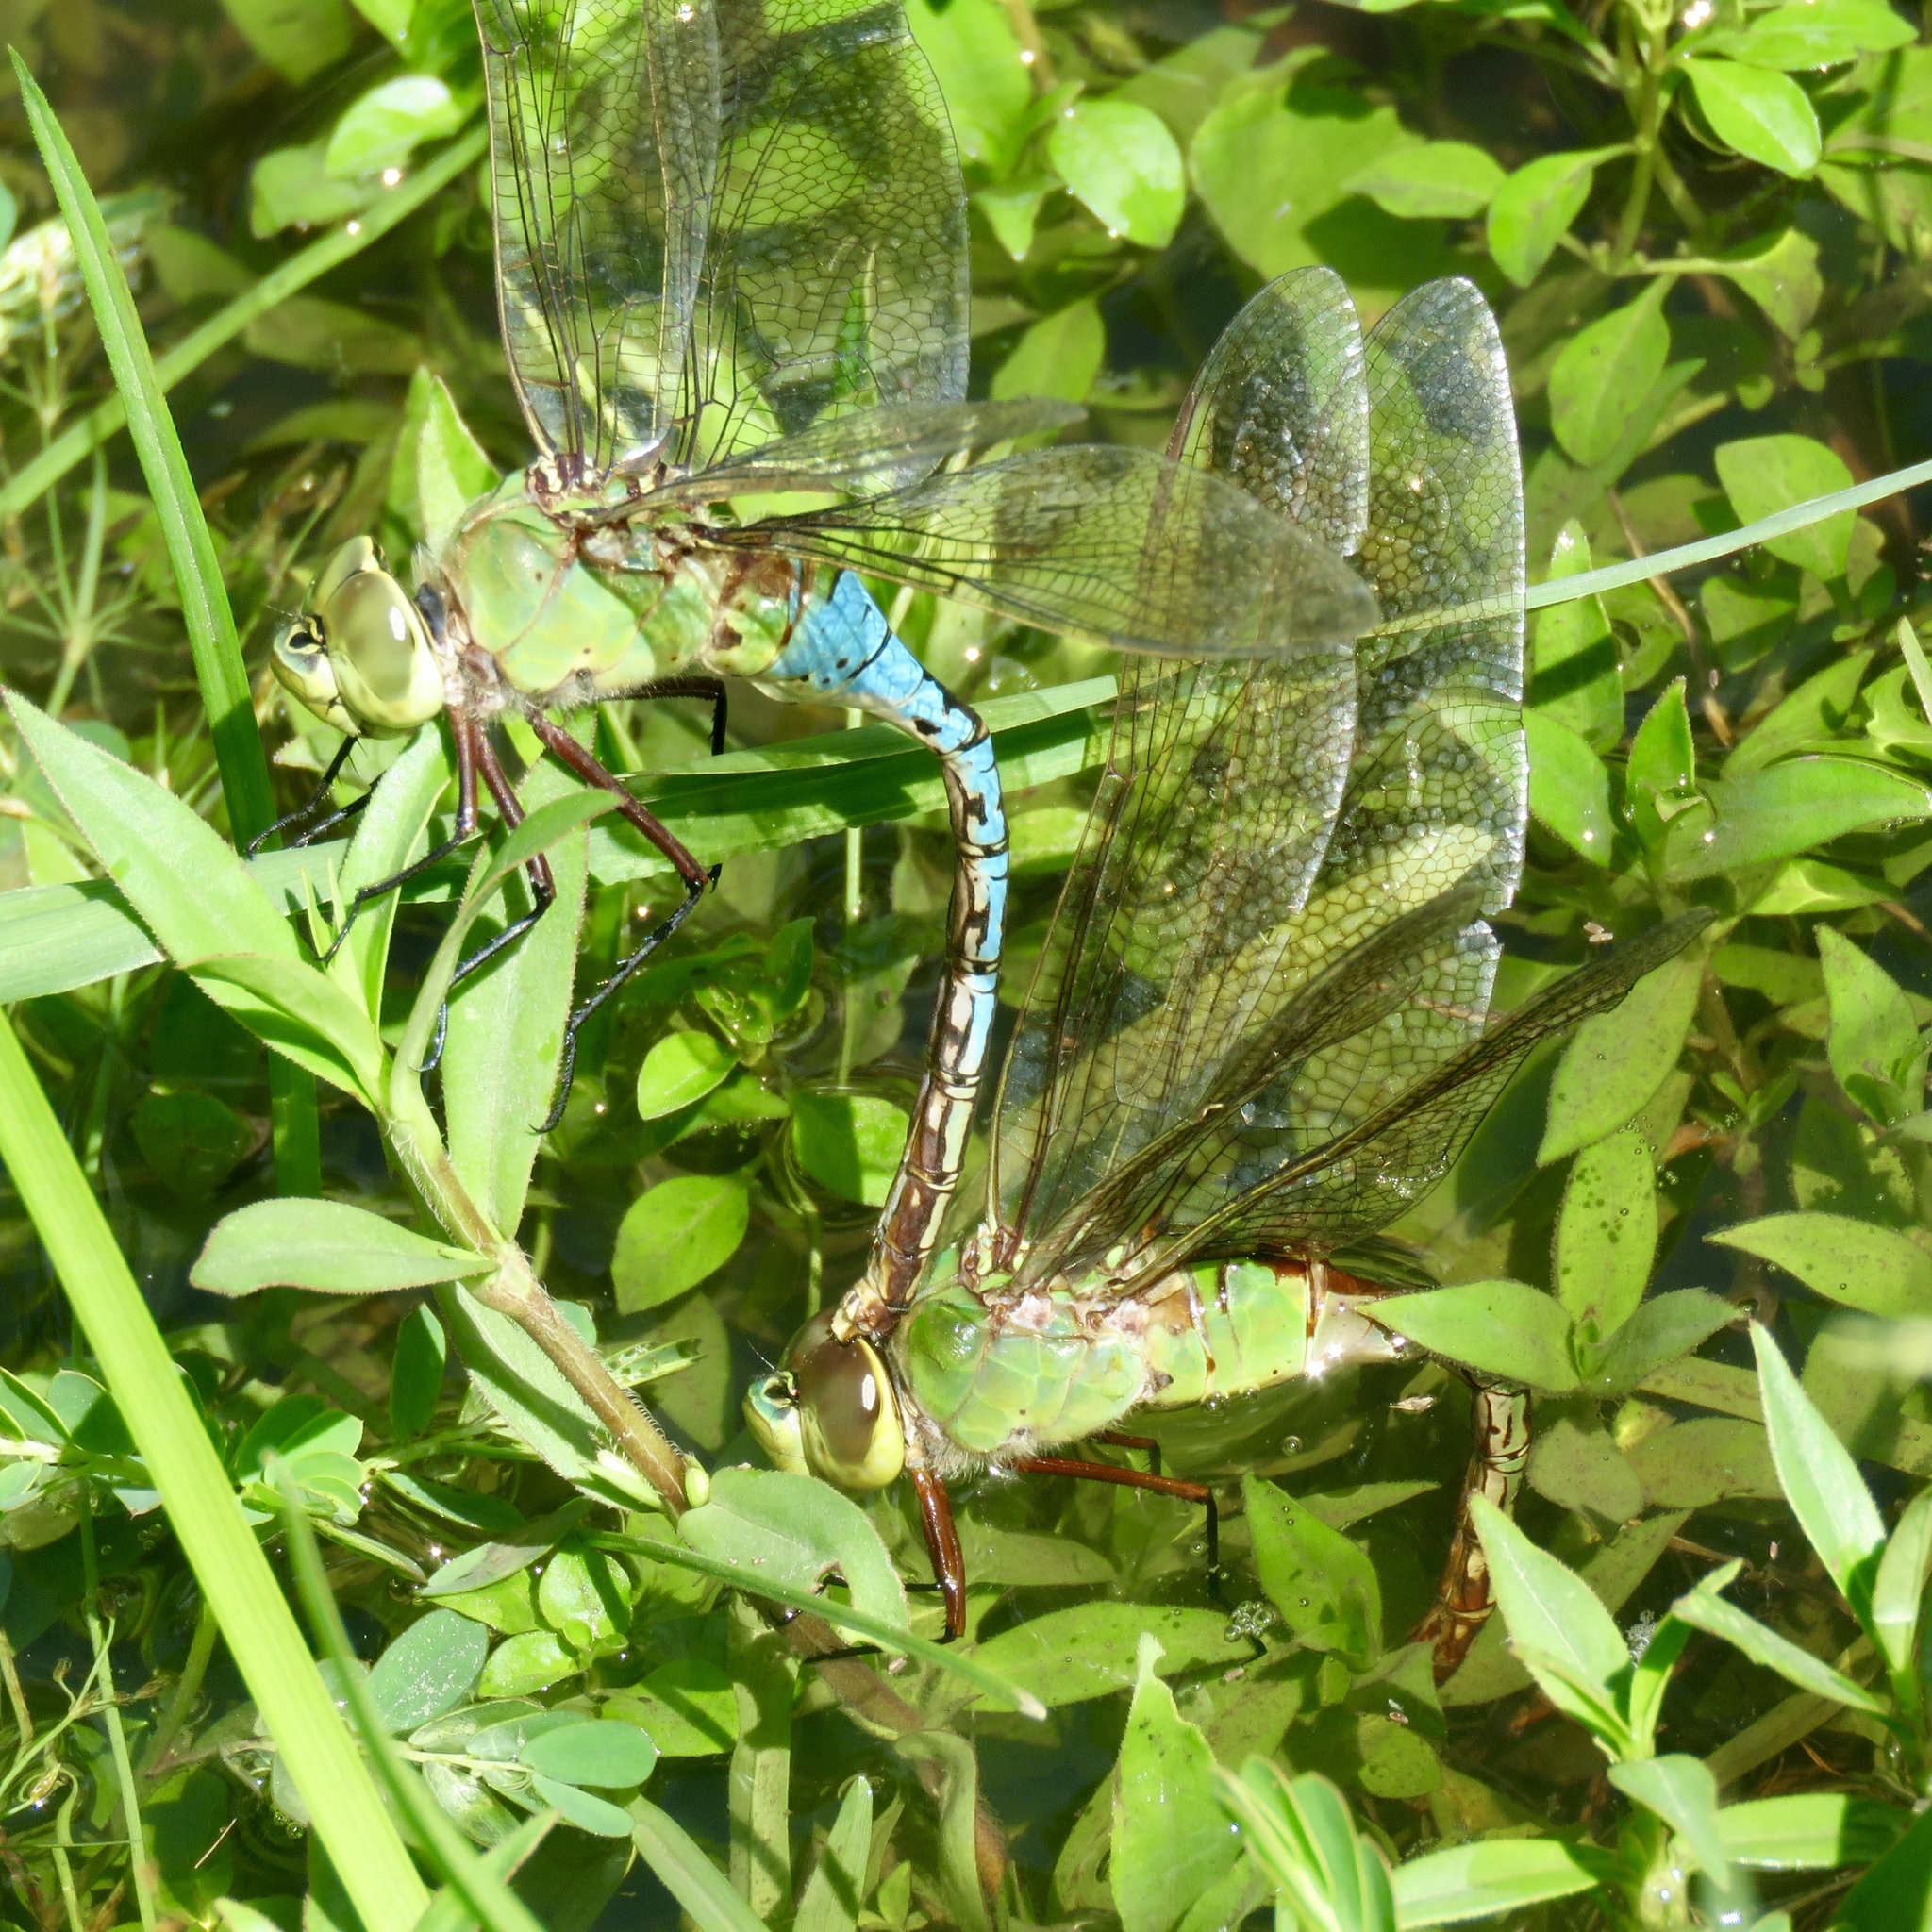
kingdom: Animalia
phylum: Arthropoda
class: Insecta
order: Odonata
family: Aeshnidae
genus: Anax
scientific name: Anax junius
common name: Common green darner
